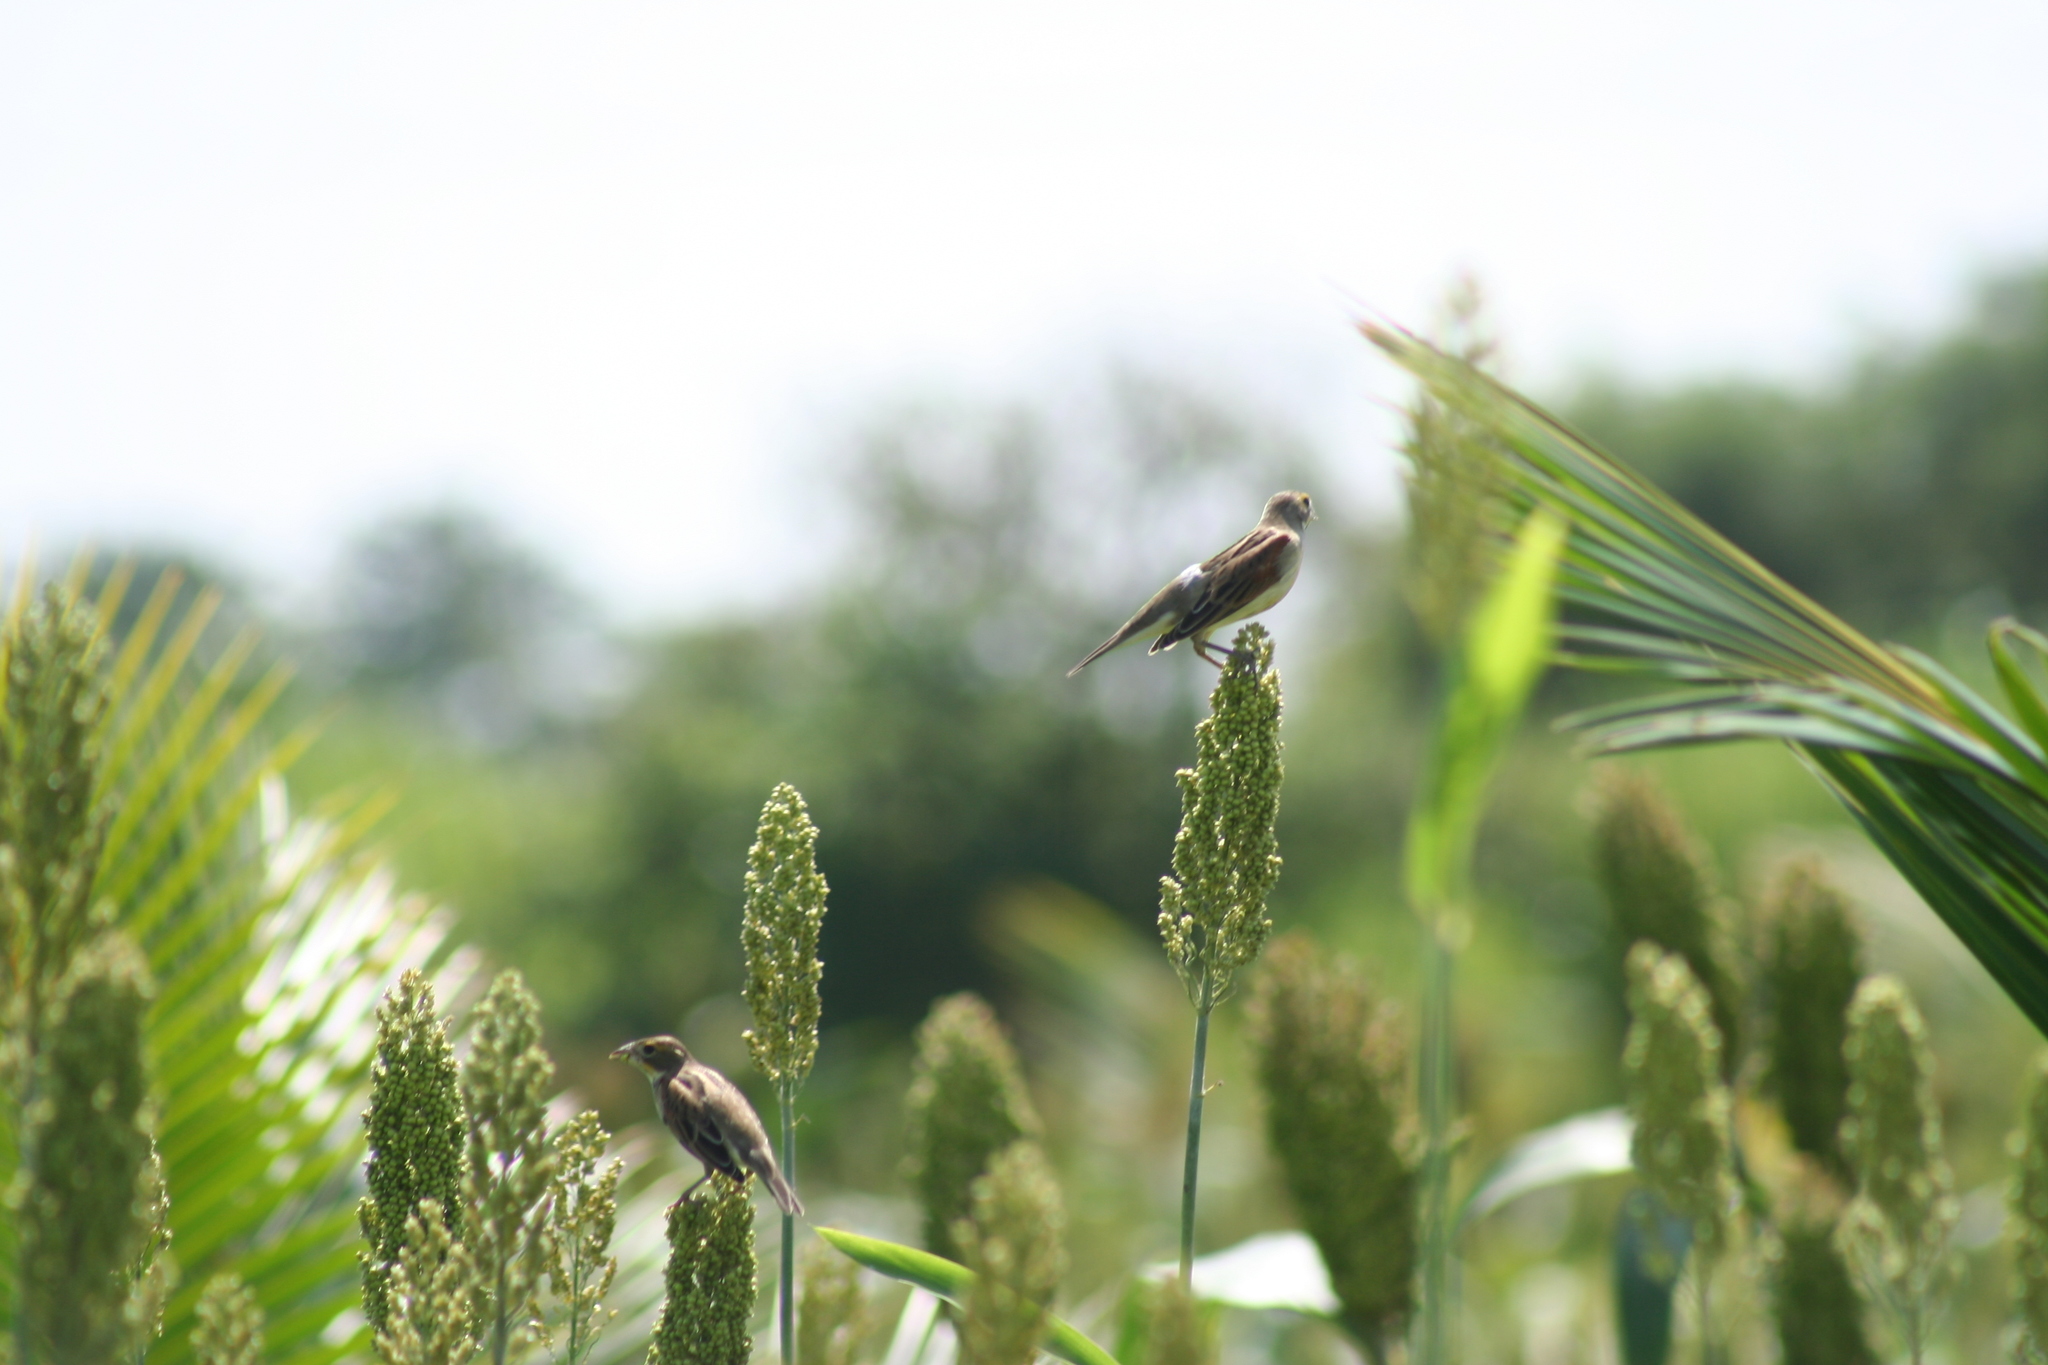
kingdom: Animalia
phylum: Chordata
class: Aves
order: Passeriformes
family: Cardinalidae
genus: Spiza
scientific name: Spiza americana
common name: Dickcissel
